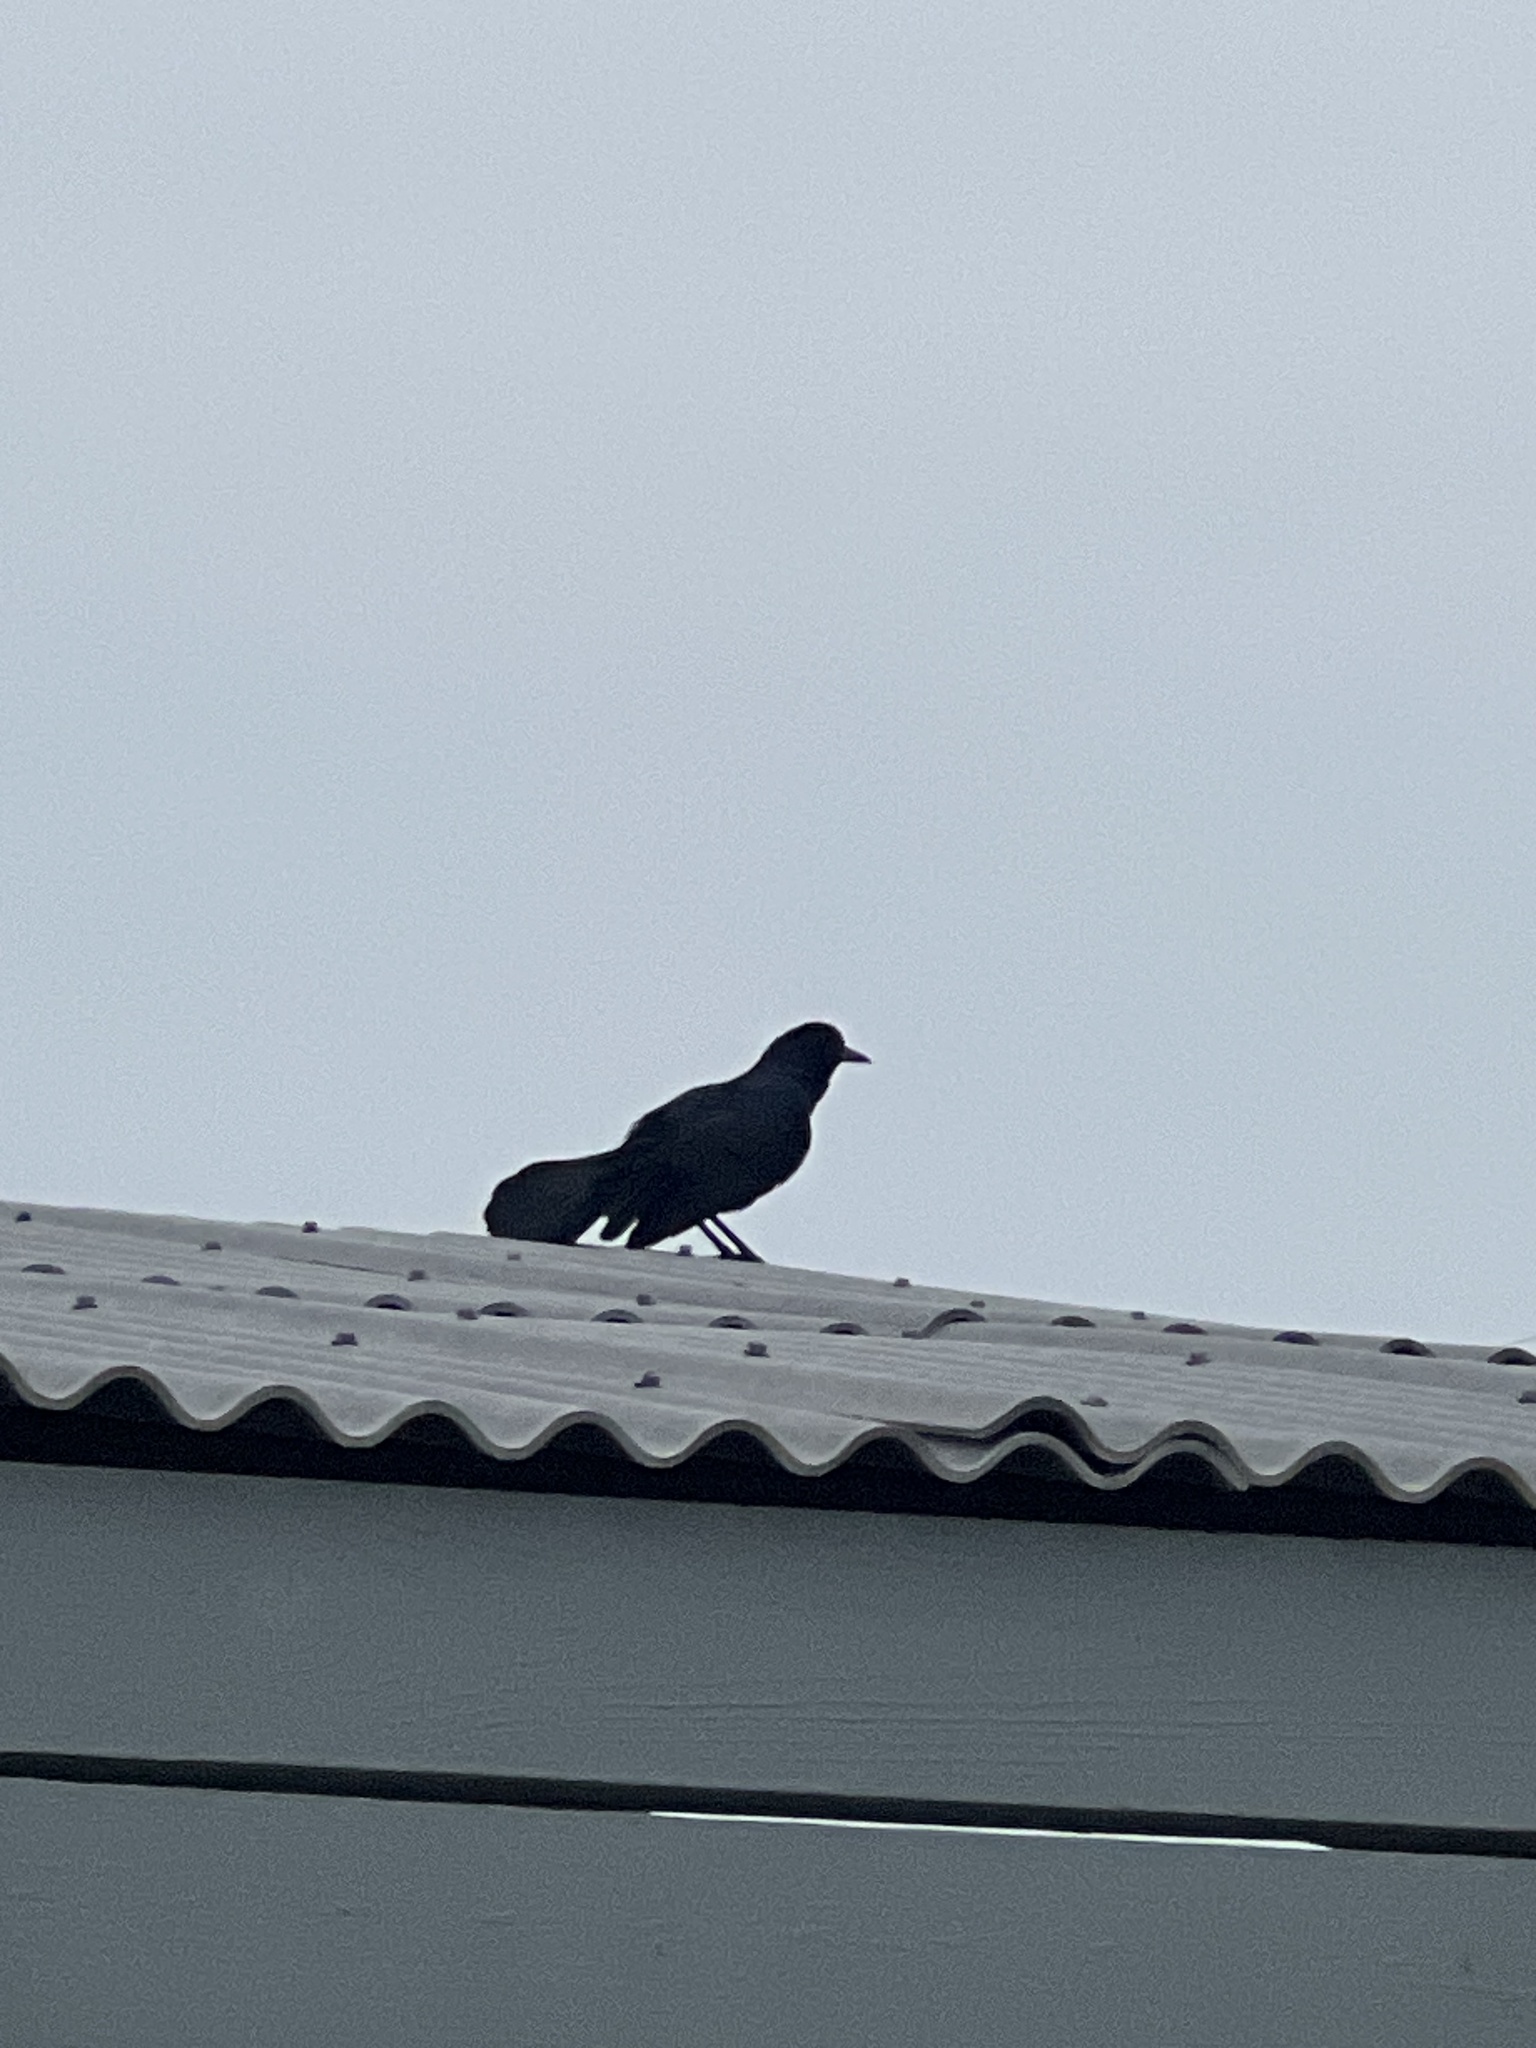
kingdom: Animalia
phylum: Chordata
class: Aves
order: Passeriformes
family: Icteridae
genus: Quiscalus
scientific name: Quiscalus mexicanus
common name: Great-tailed grackle
